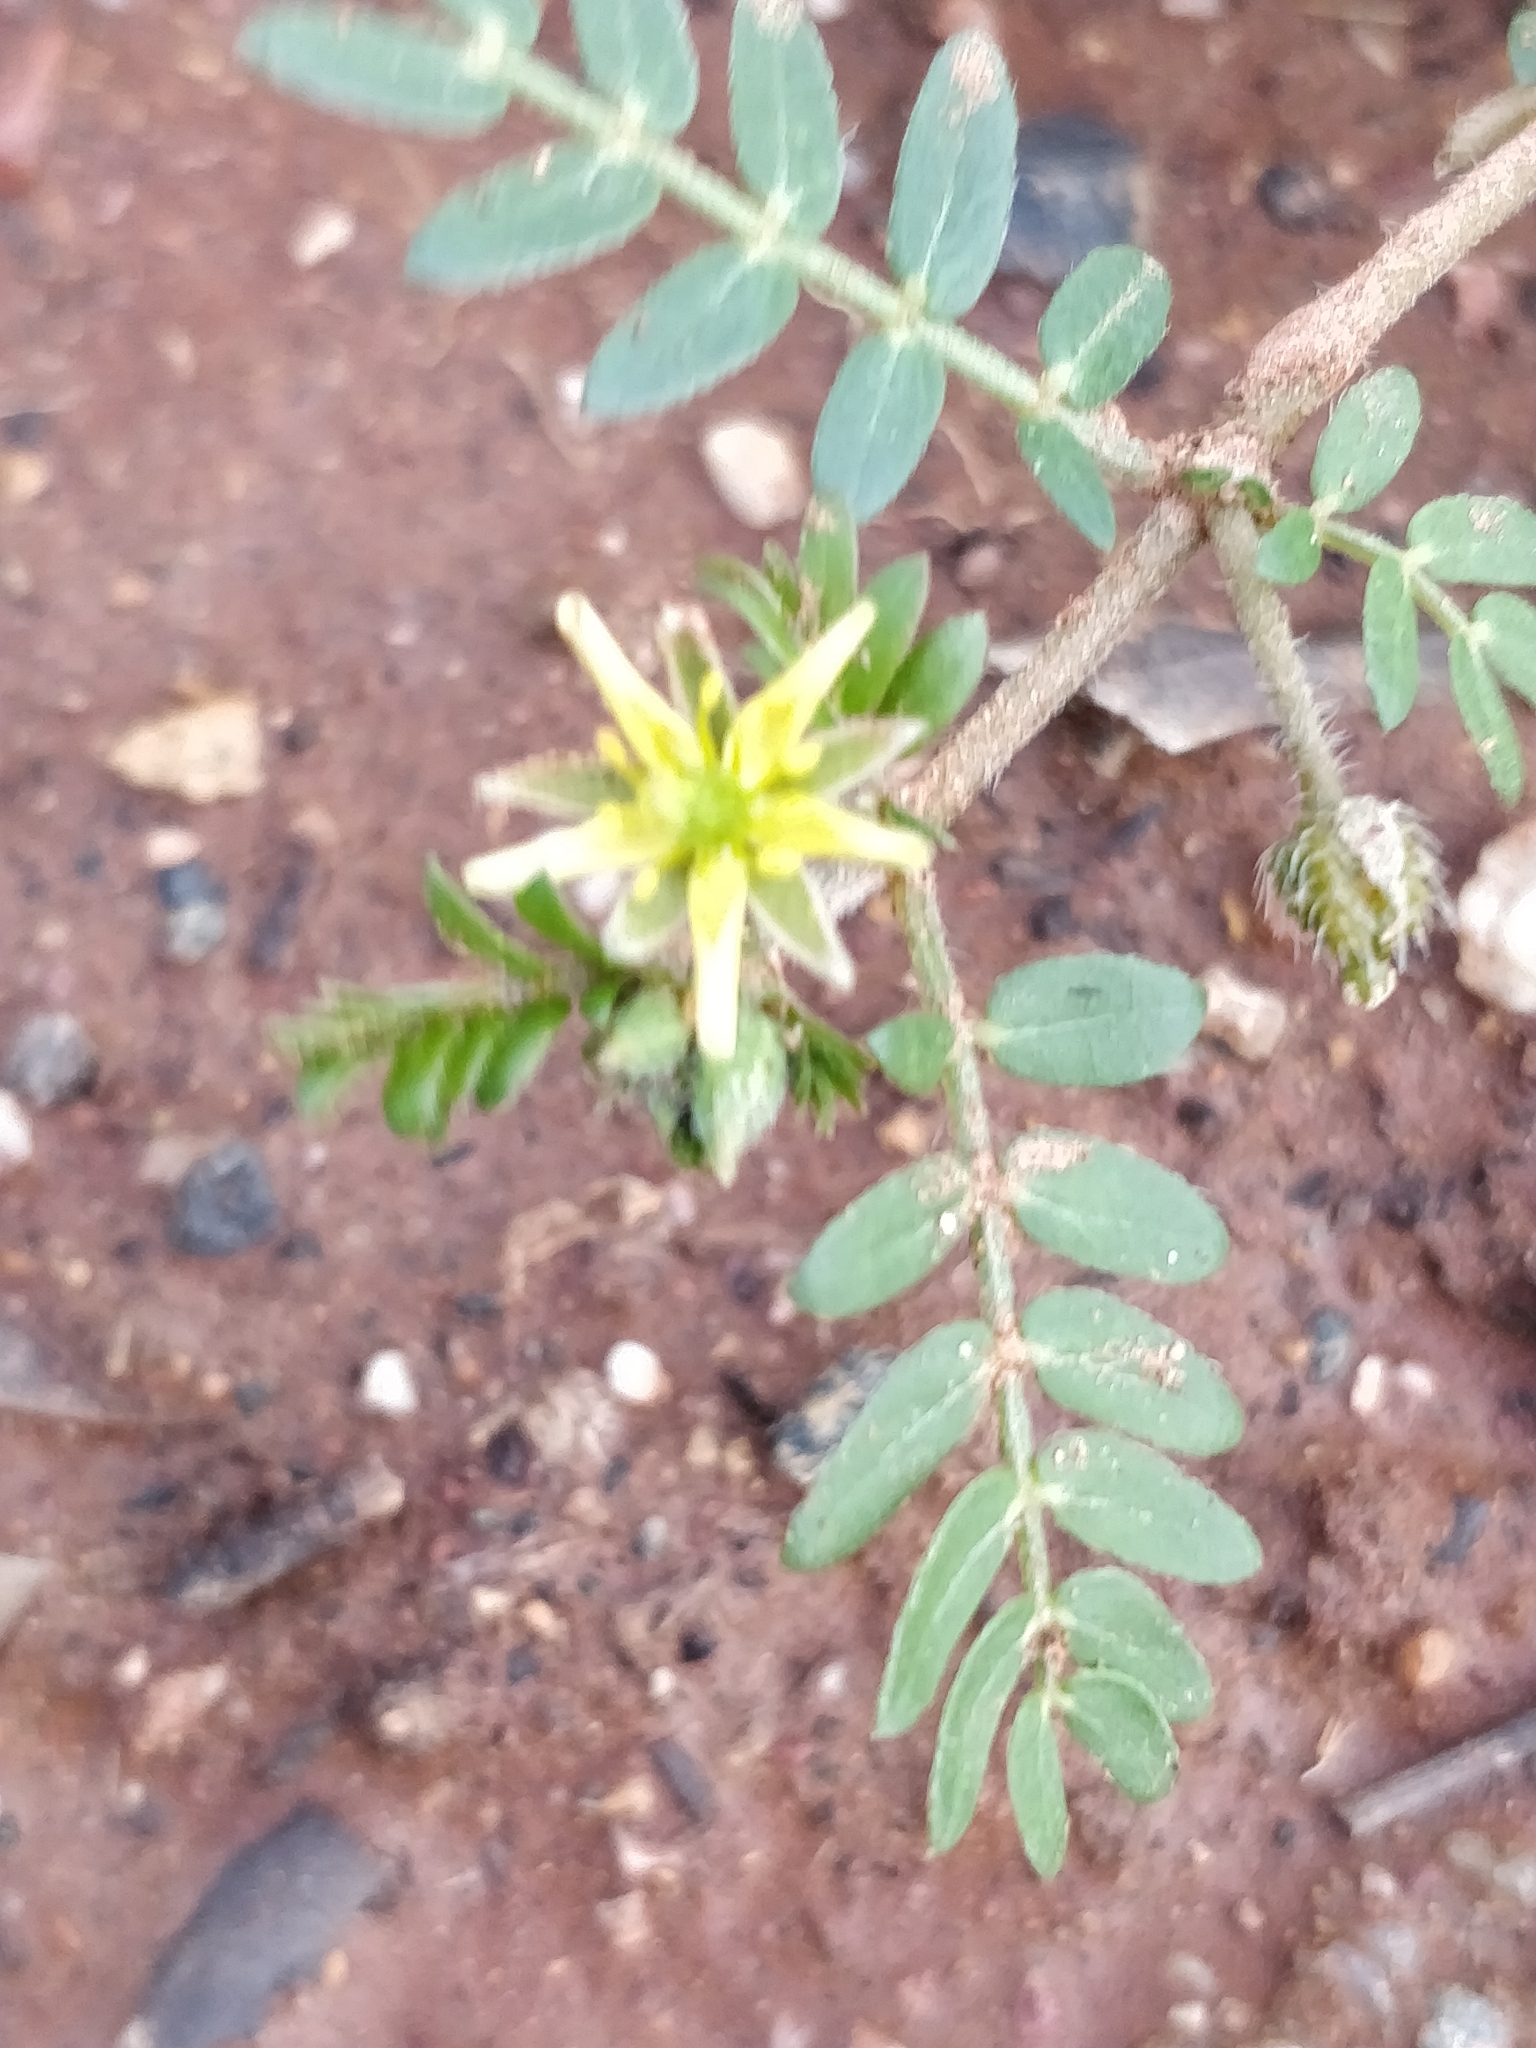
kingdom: Plantae
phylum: Tracheophyta
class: Magnoliopsida
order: Zygophyllales
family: Zygophyllaceae
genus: Tribulus
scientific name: Tribulus terrestris
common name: Puncturevine
